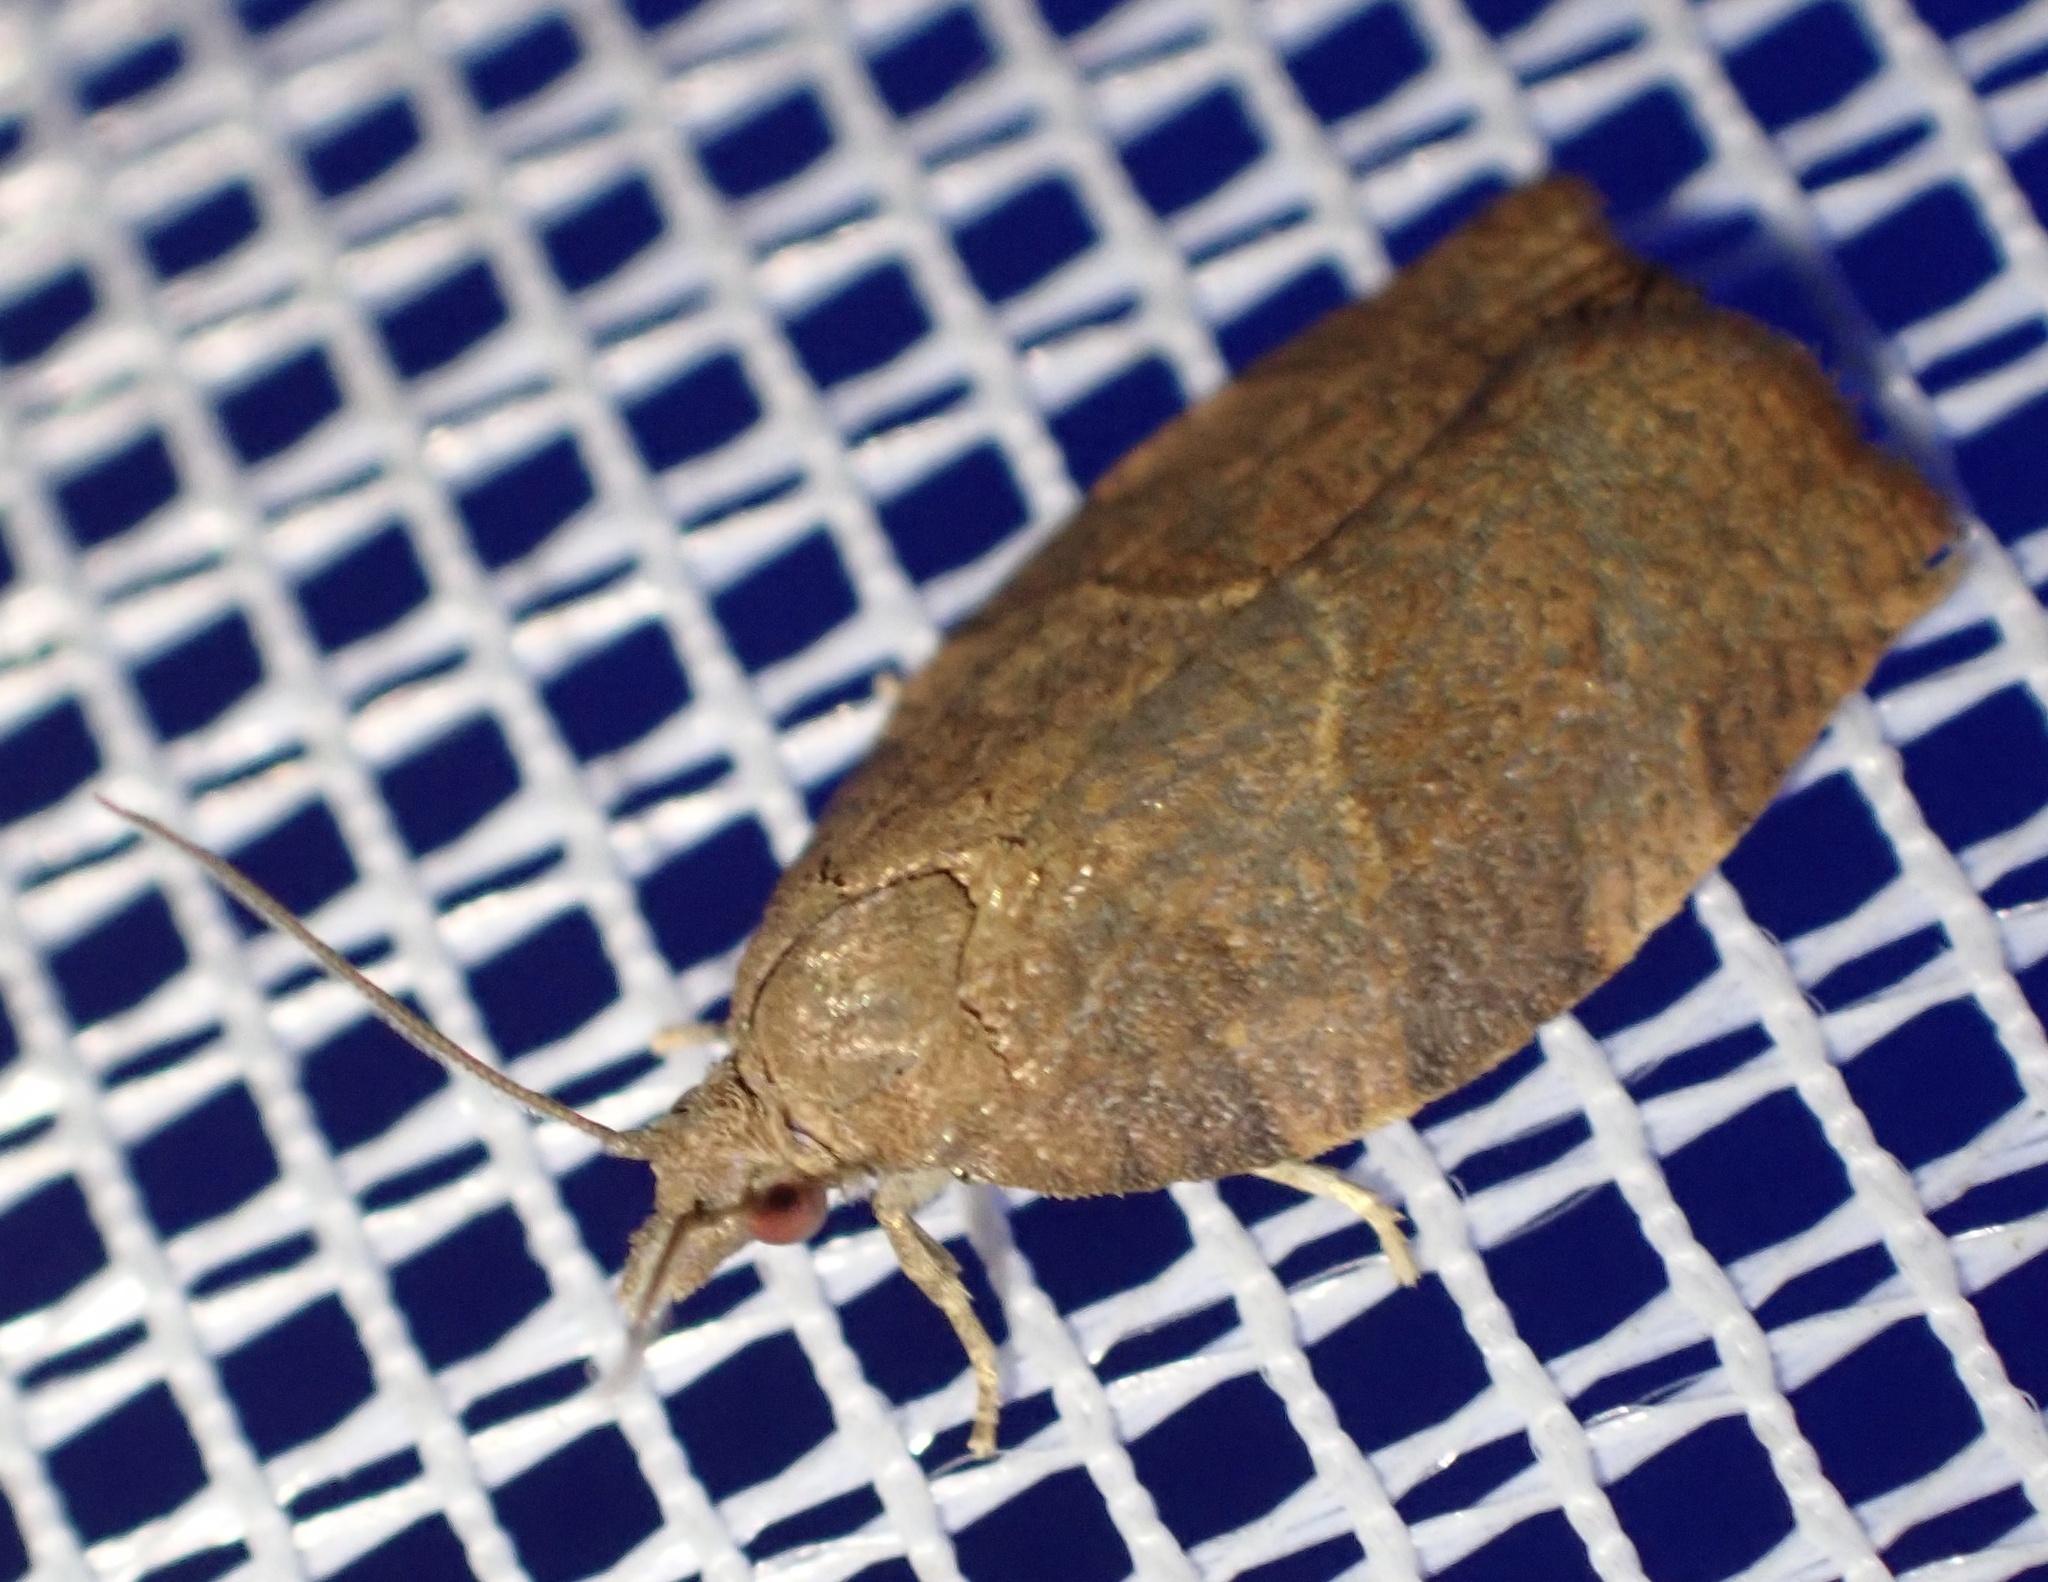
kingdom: Animalia
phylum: Arthropoda
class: Insecta
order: Lepidoptera
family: Tortricidae
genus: Pandemis
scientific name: Pandemis heparana
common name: Dark fruit-tree tortrix
